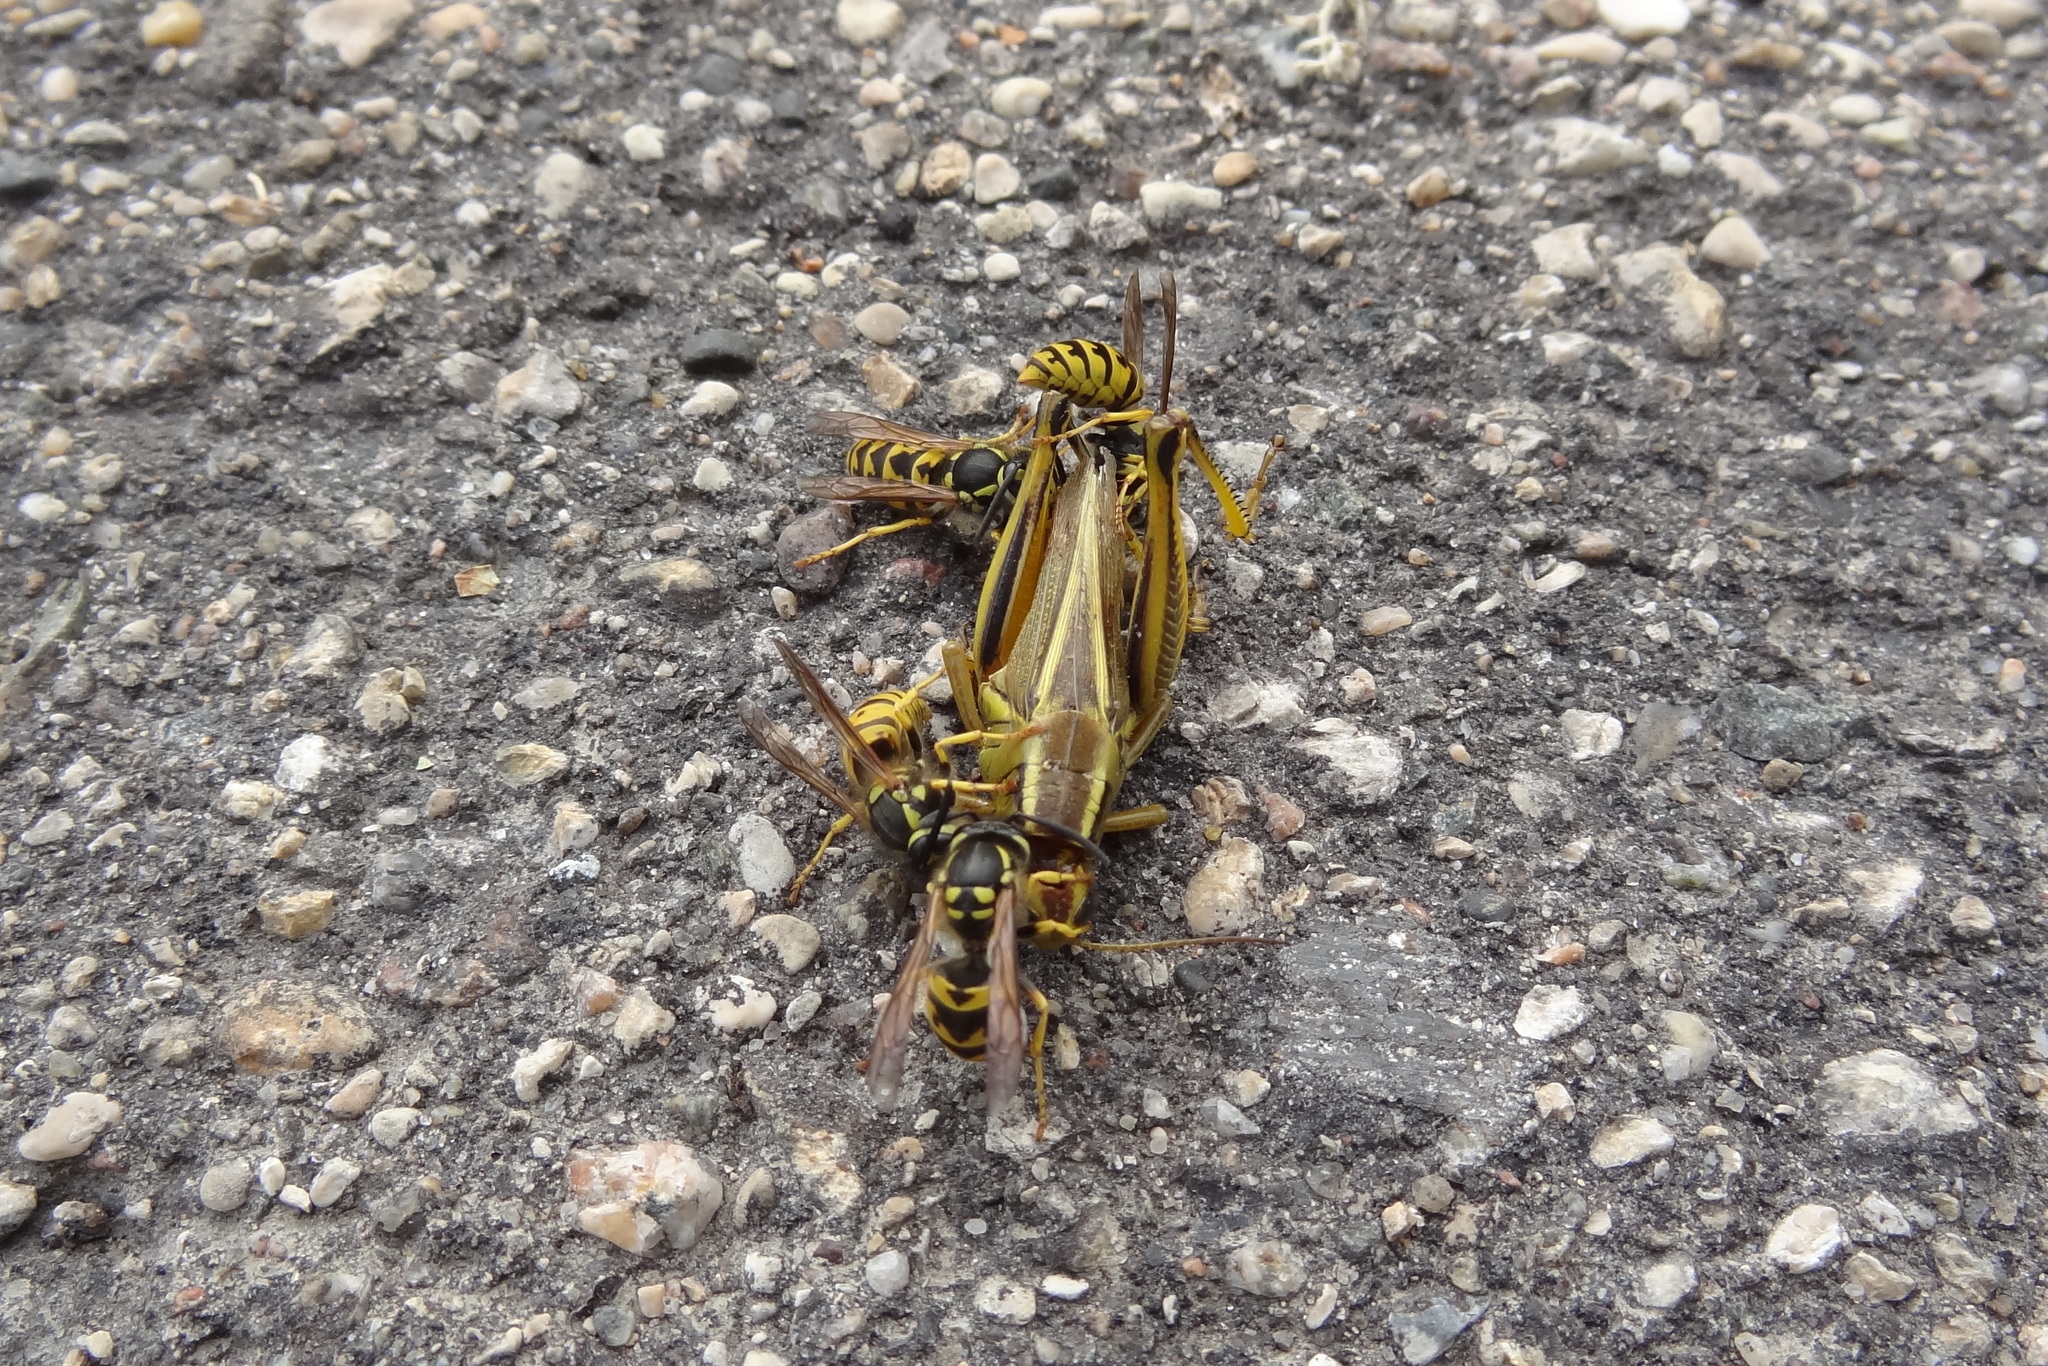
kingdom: Animalia
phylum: Arthropoda
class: Insecta
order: Hymenoptera
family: Vespidae
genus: Vespula
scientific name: Vespula germanica
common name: German wasp
